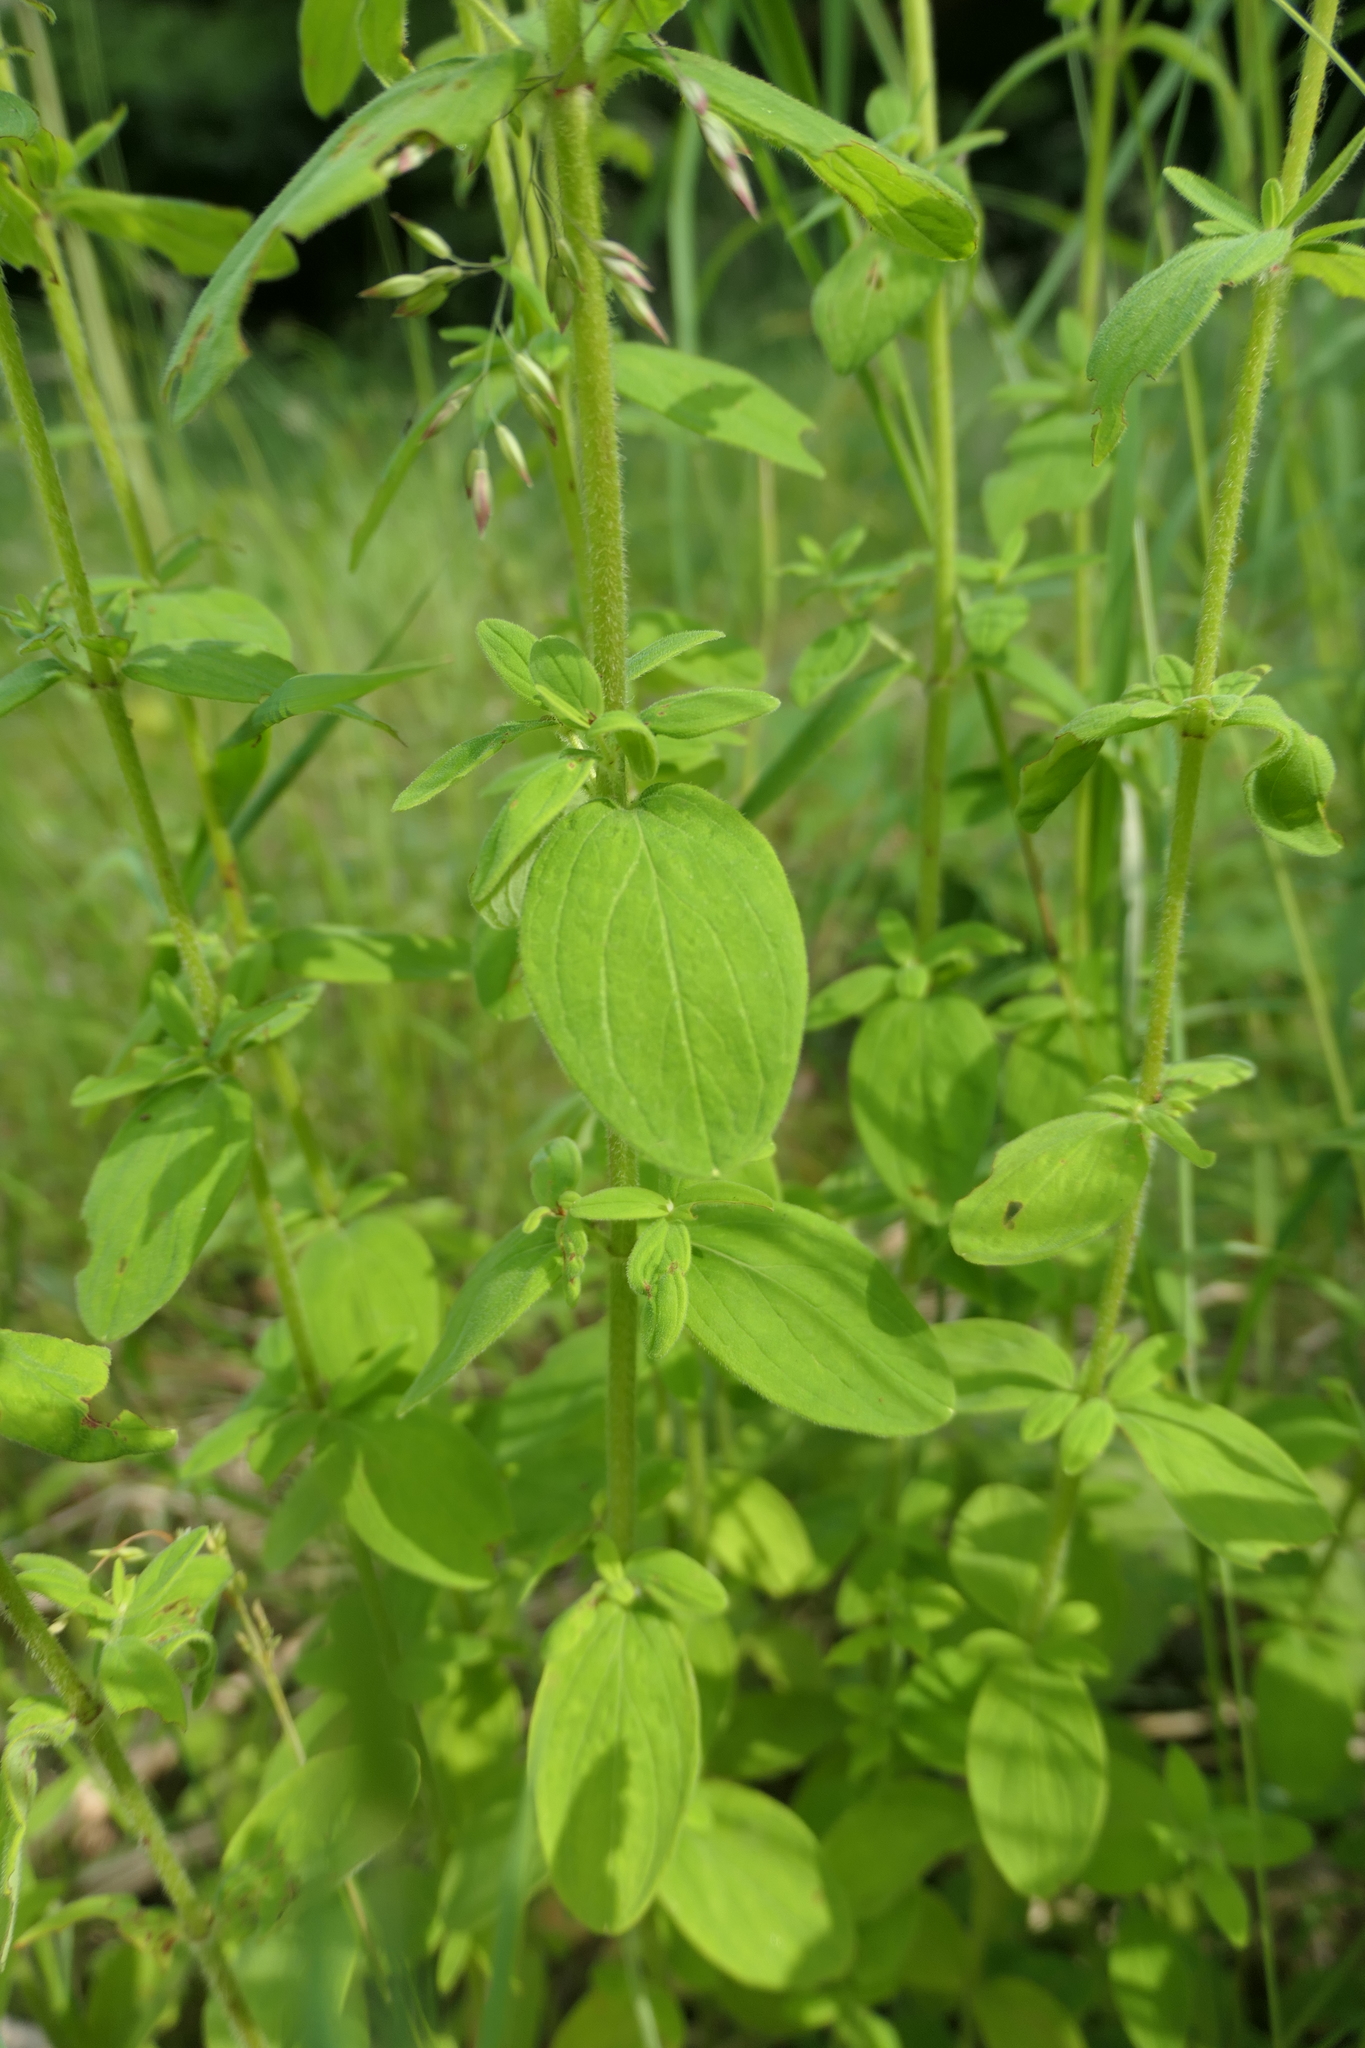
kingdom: Plantae
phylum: Tracheophyta
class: Magnoliopsida
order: Malpighiales
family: Hypericaceae
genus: Hypericum
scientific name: Hypericum hirsutum
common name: Hairy st. john's-wort
